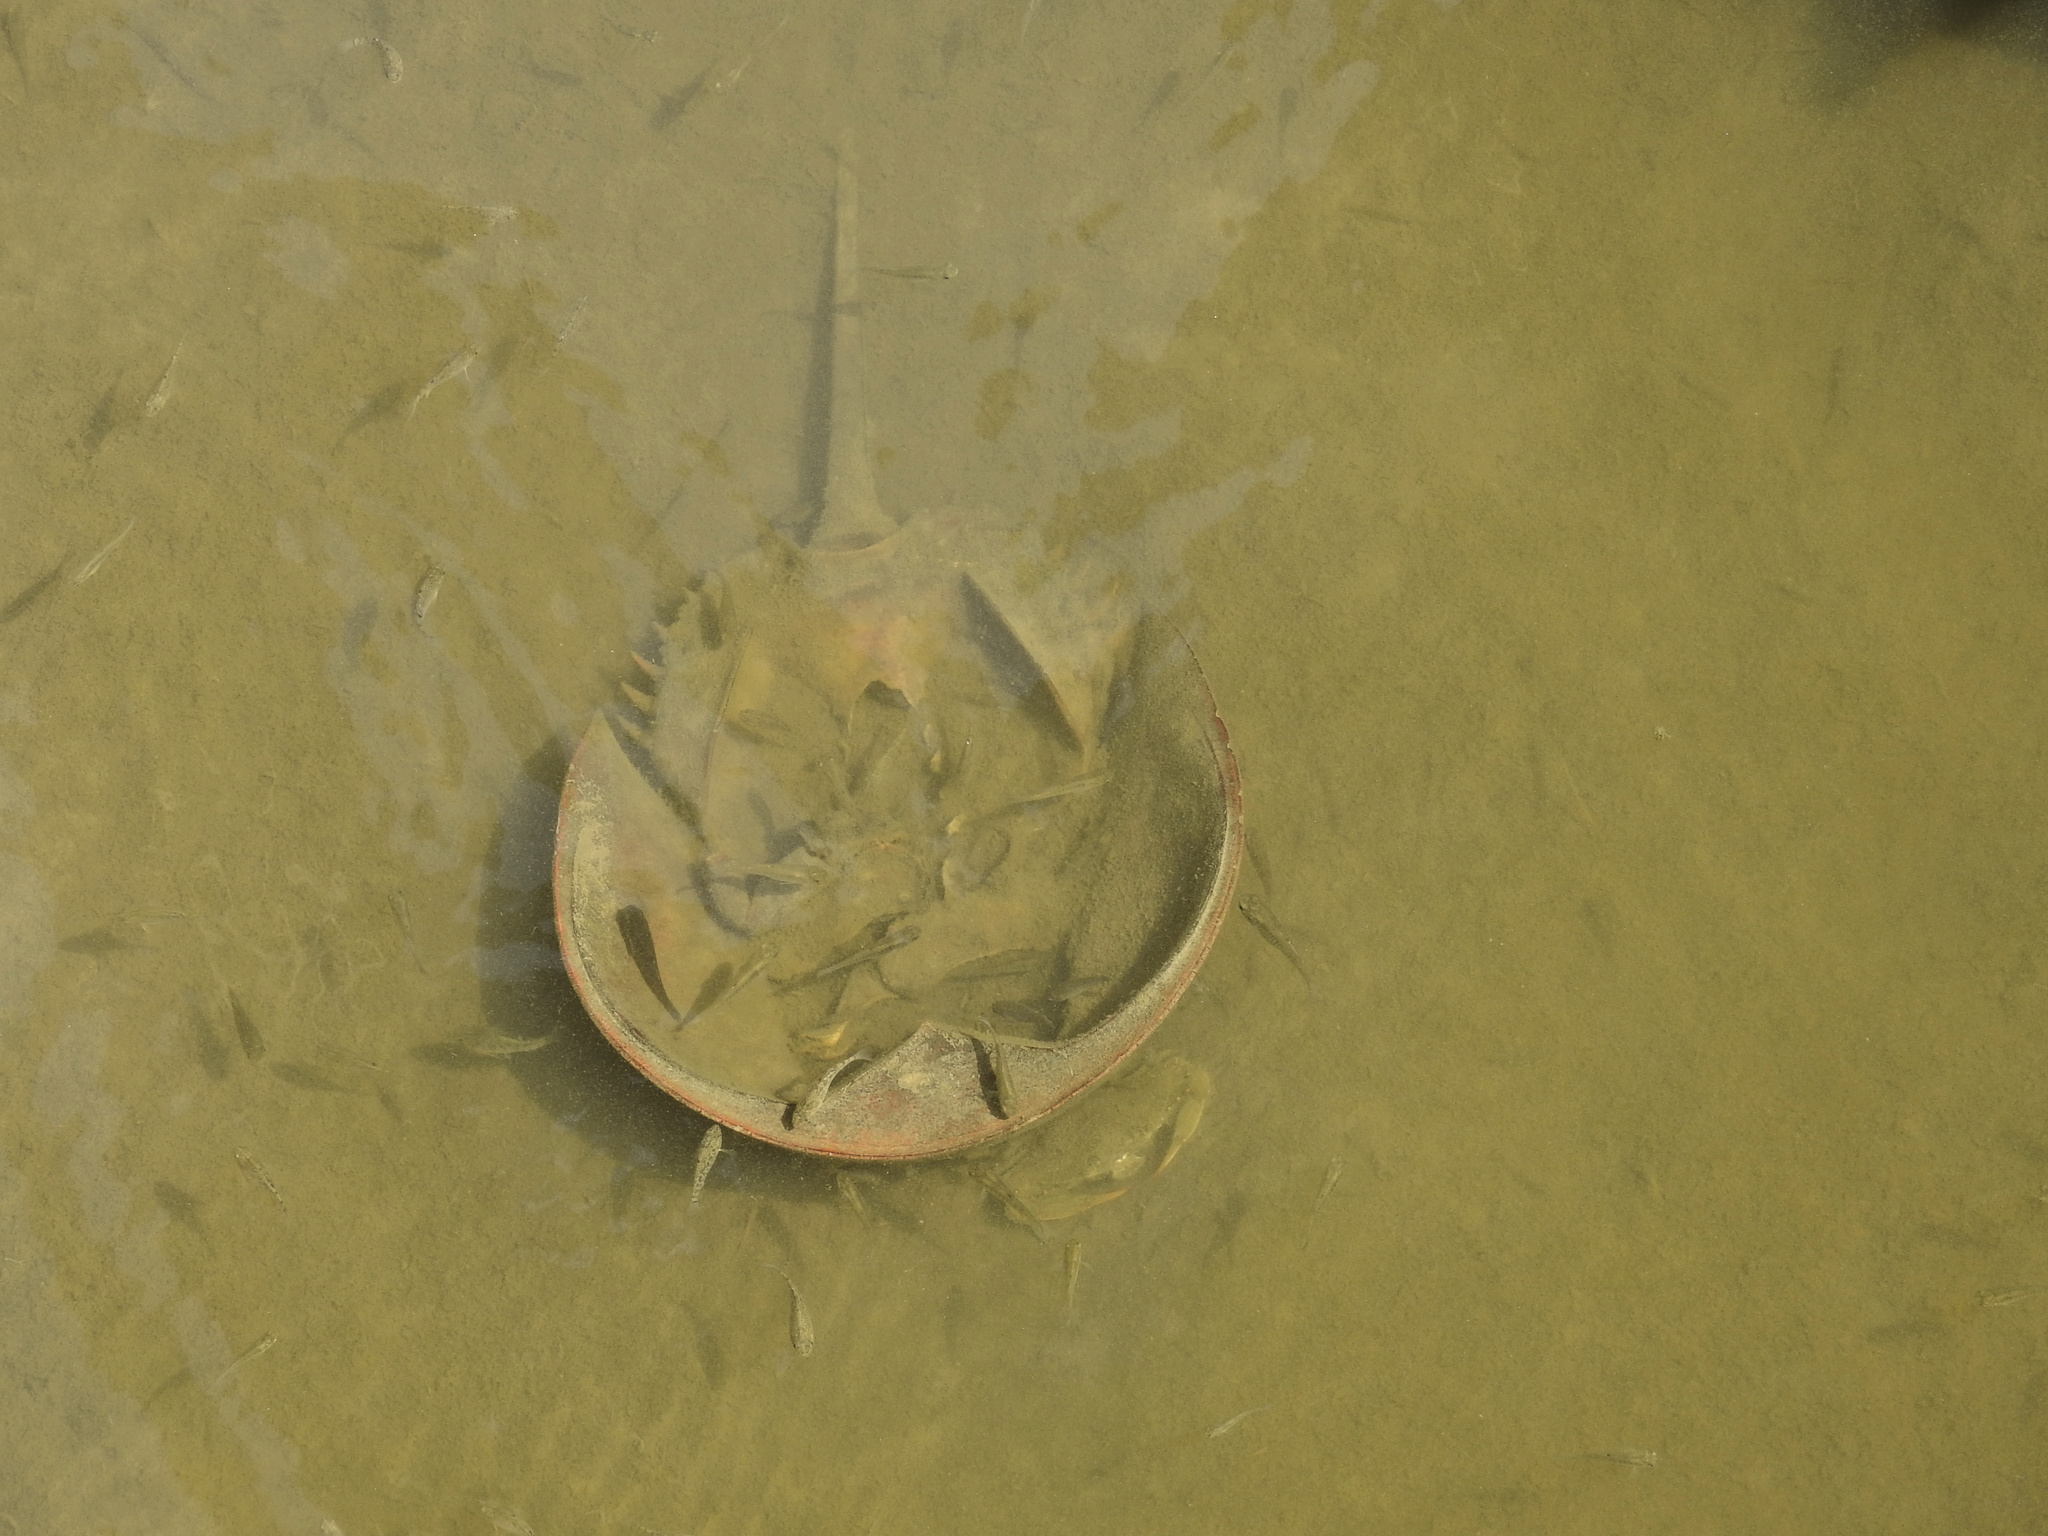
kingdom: Animalia
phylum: Arthropoda
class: Merostomata
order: Xiphosurida
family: Limulidae
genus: Limulus
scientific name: Limulus polyphemus
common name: Horseshoe crab
